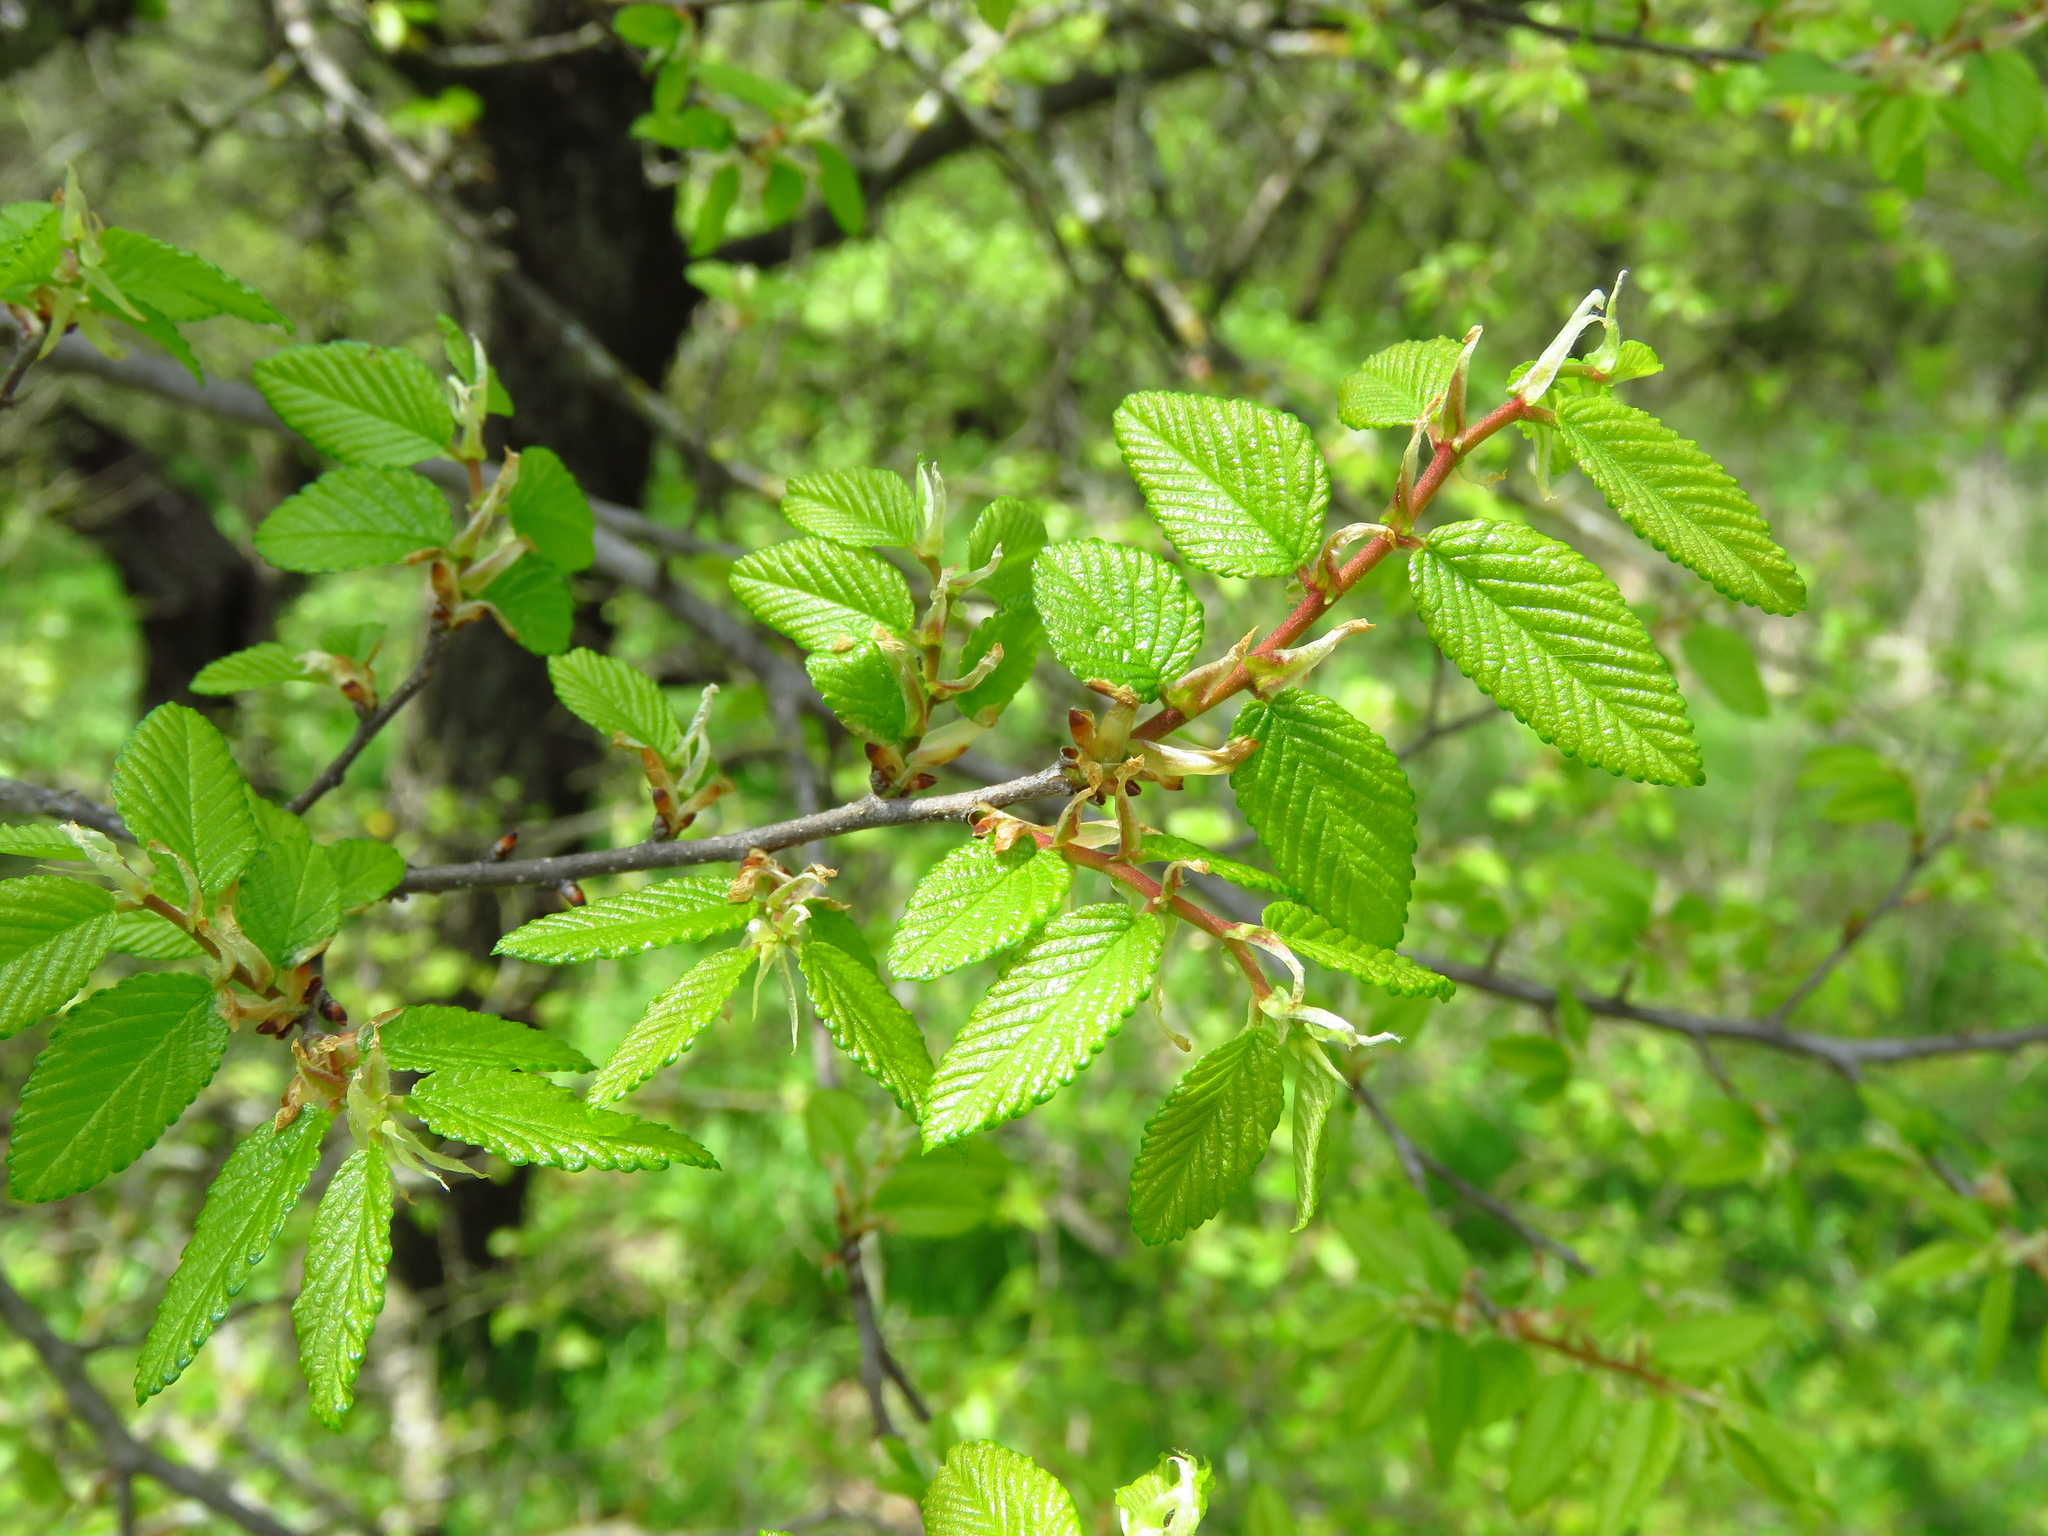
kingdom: Plantae
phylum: Tracheophyta
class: Magnoliopsida
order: Rosales
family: Ulmaceae
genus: Ulmus
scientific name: Ulmus crassifolia
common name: Basket elm
